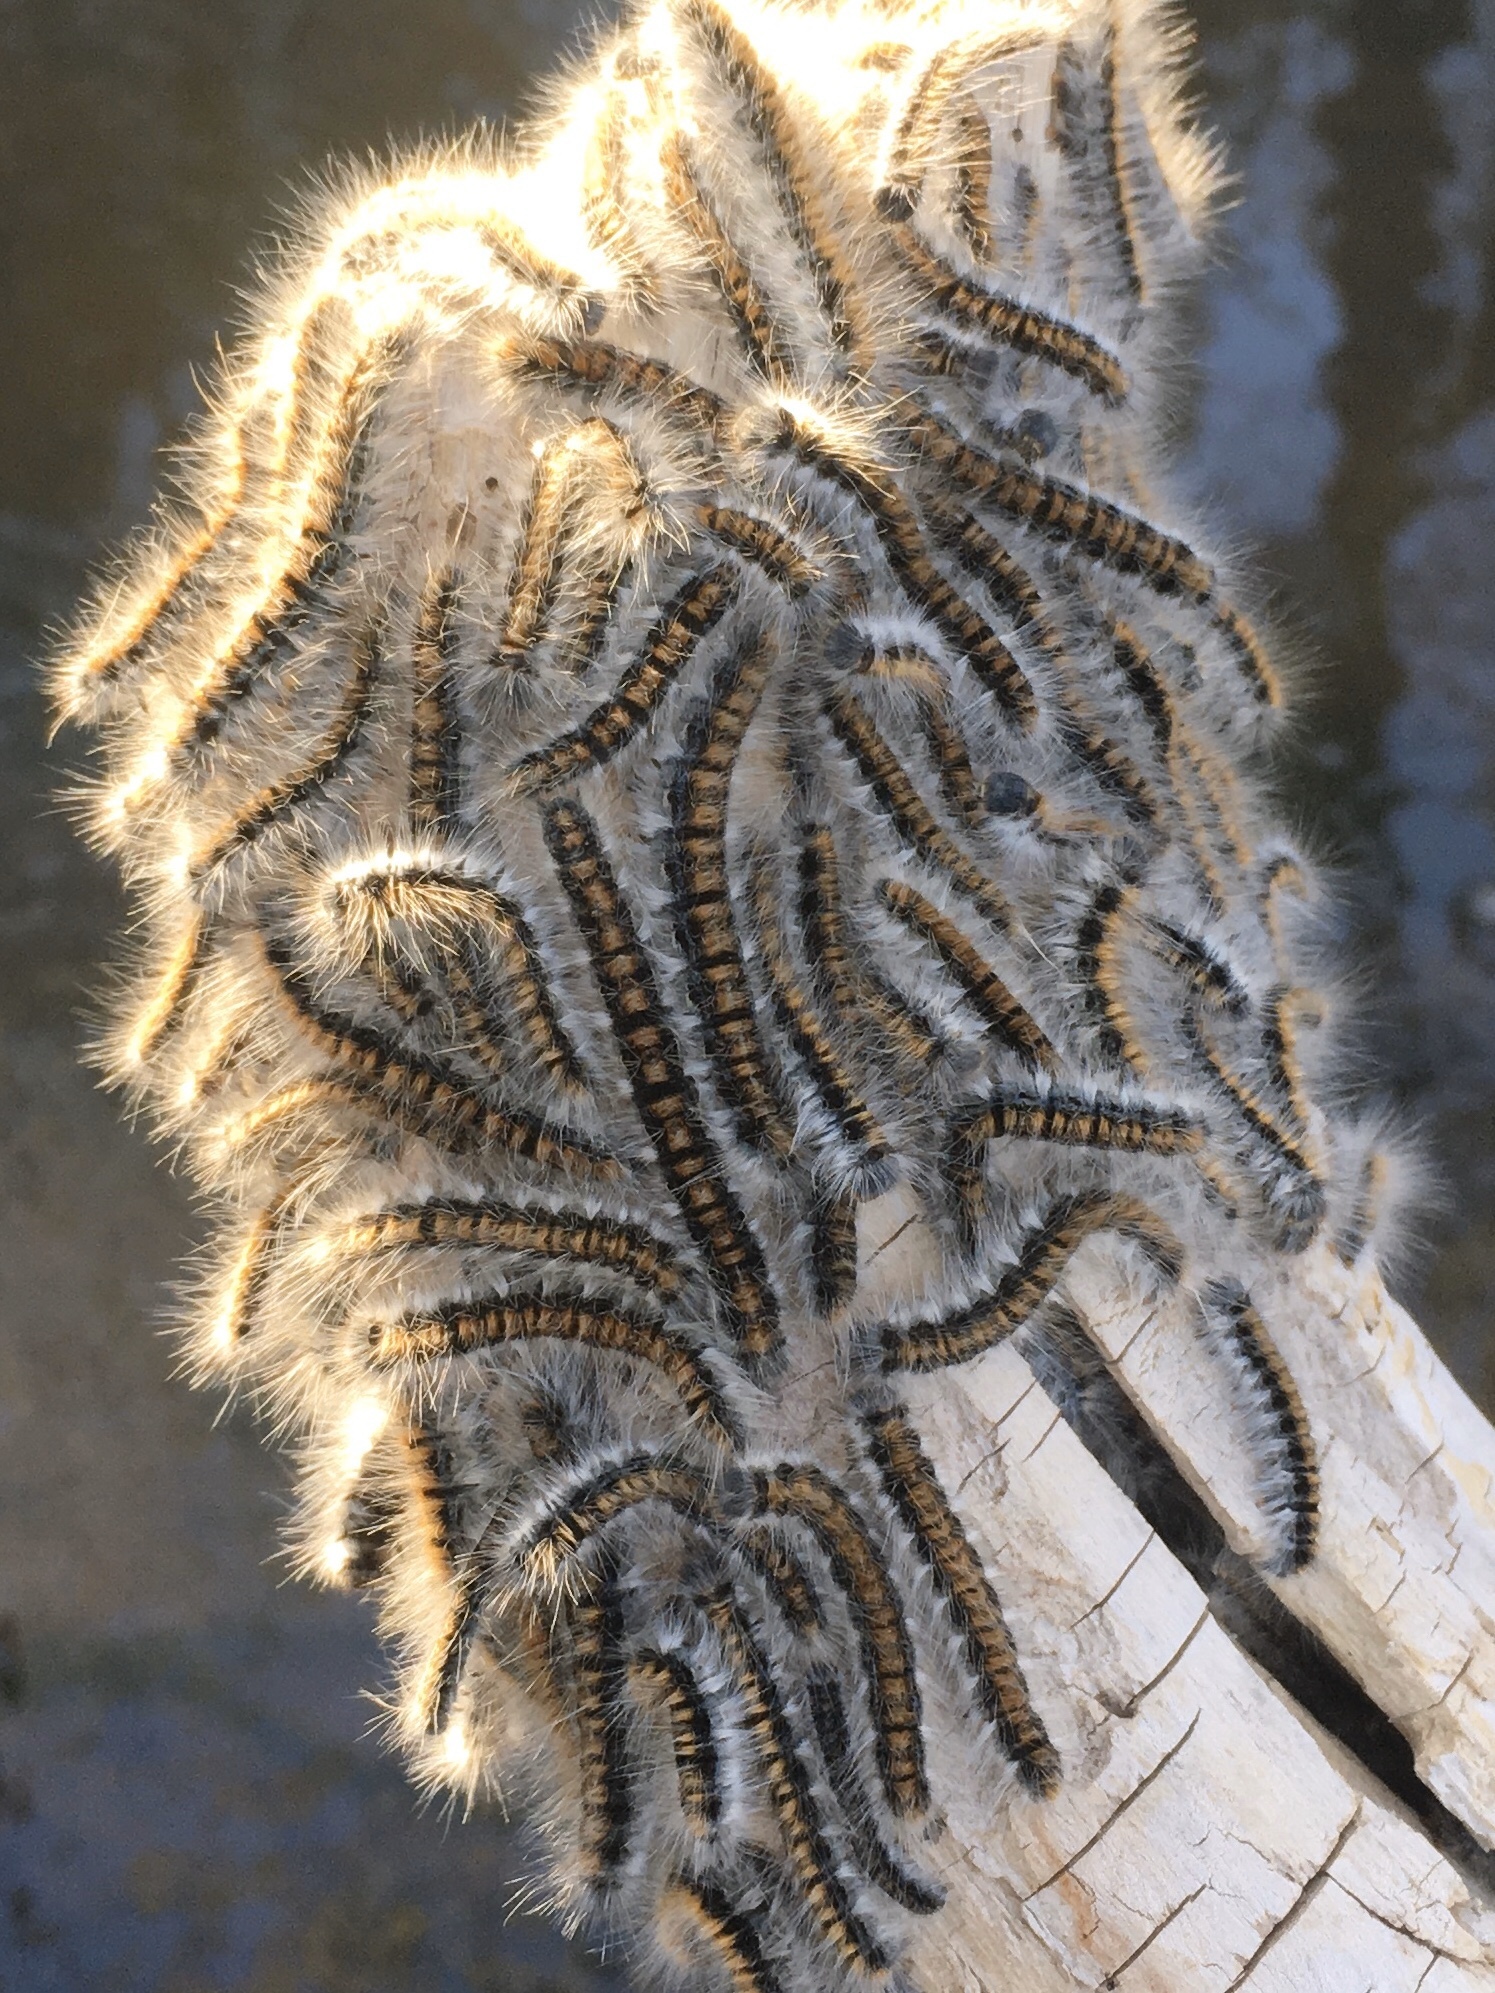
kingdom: Animalia
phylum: Arthropoda
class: Insecta
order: Lepidoptera
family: Lasiocampidae
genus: Malacosoma
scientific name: Malacosoma incurva
